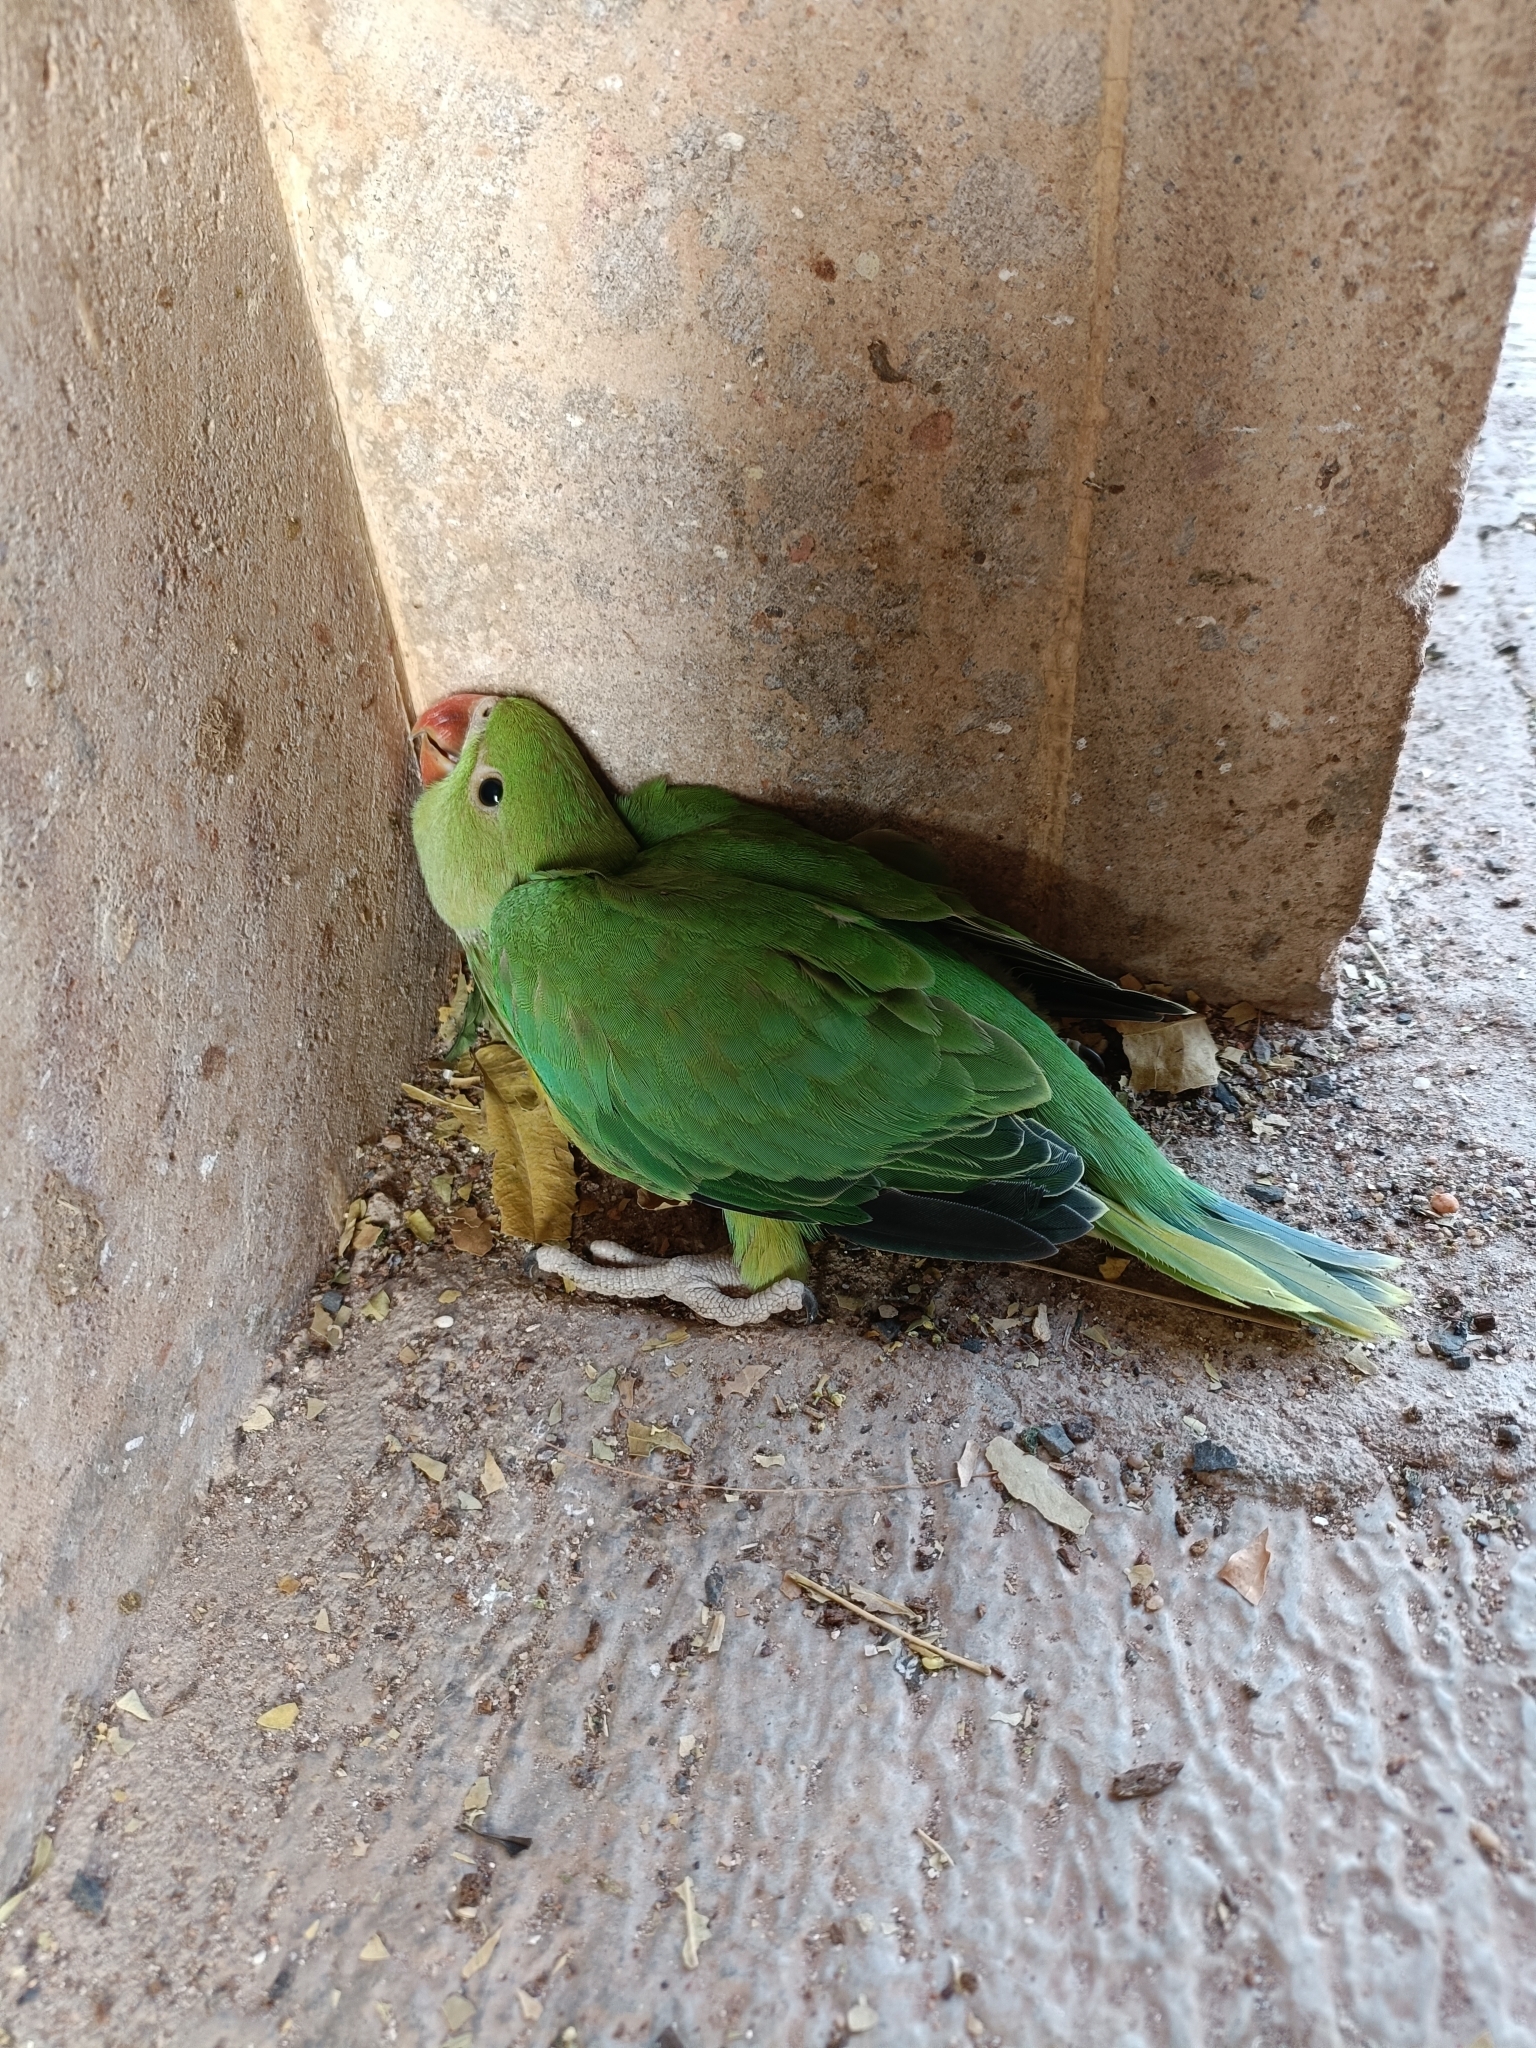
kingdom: Animalia
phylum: Chordata
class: Aves
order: Psittaciformes
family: Psittacidae
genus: Psittacula
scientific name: Psittacula krameri
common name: Rose-ringed parakeet
